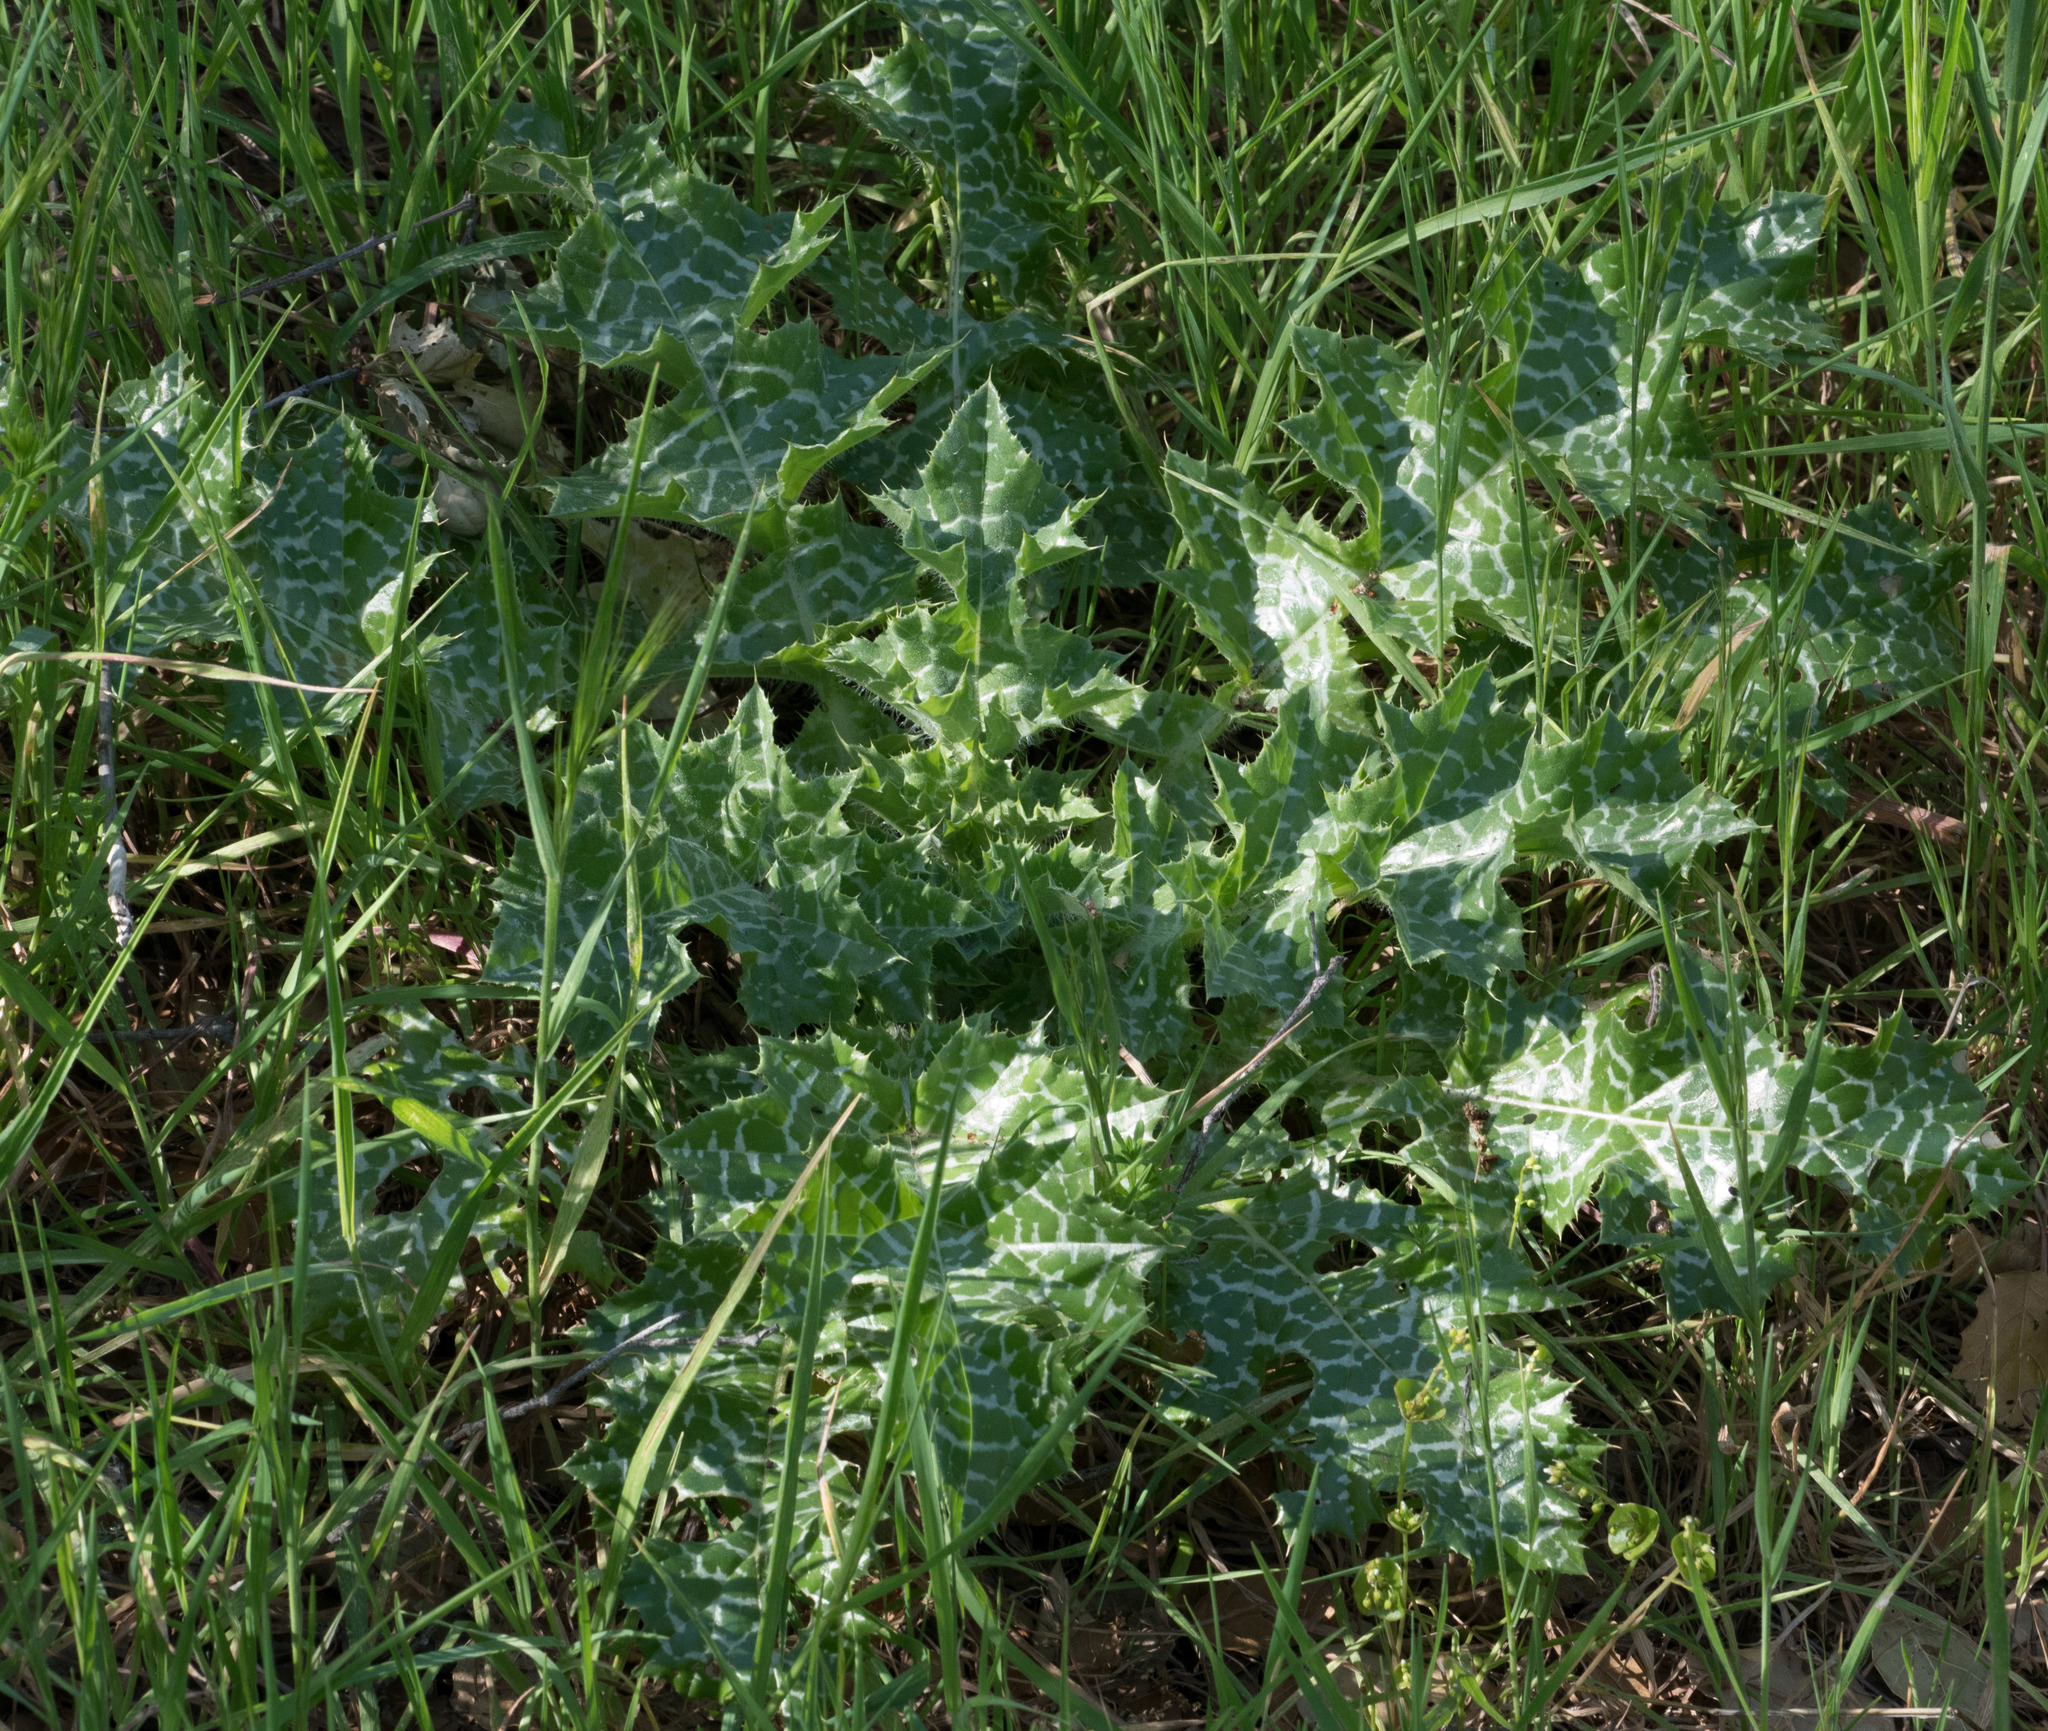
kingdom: Plantae
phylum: Tracheophyta
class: Magnoliopsida
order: Asterales
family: Asteraceae
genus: Silybum
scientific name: Silybum marianum
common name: Milk thistle
